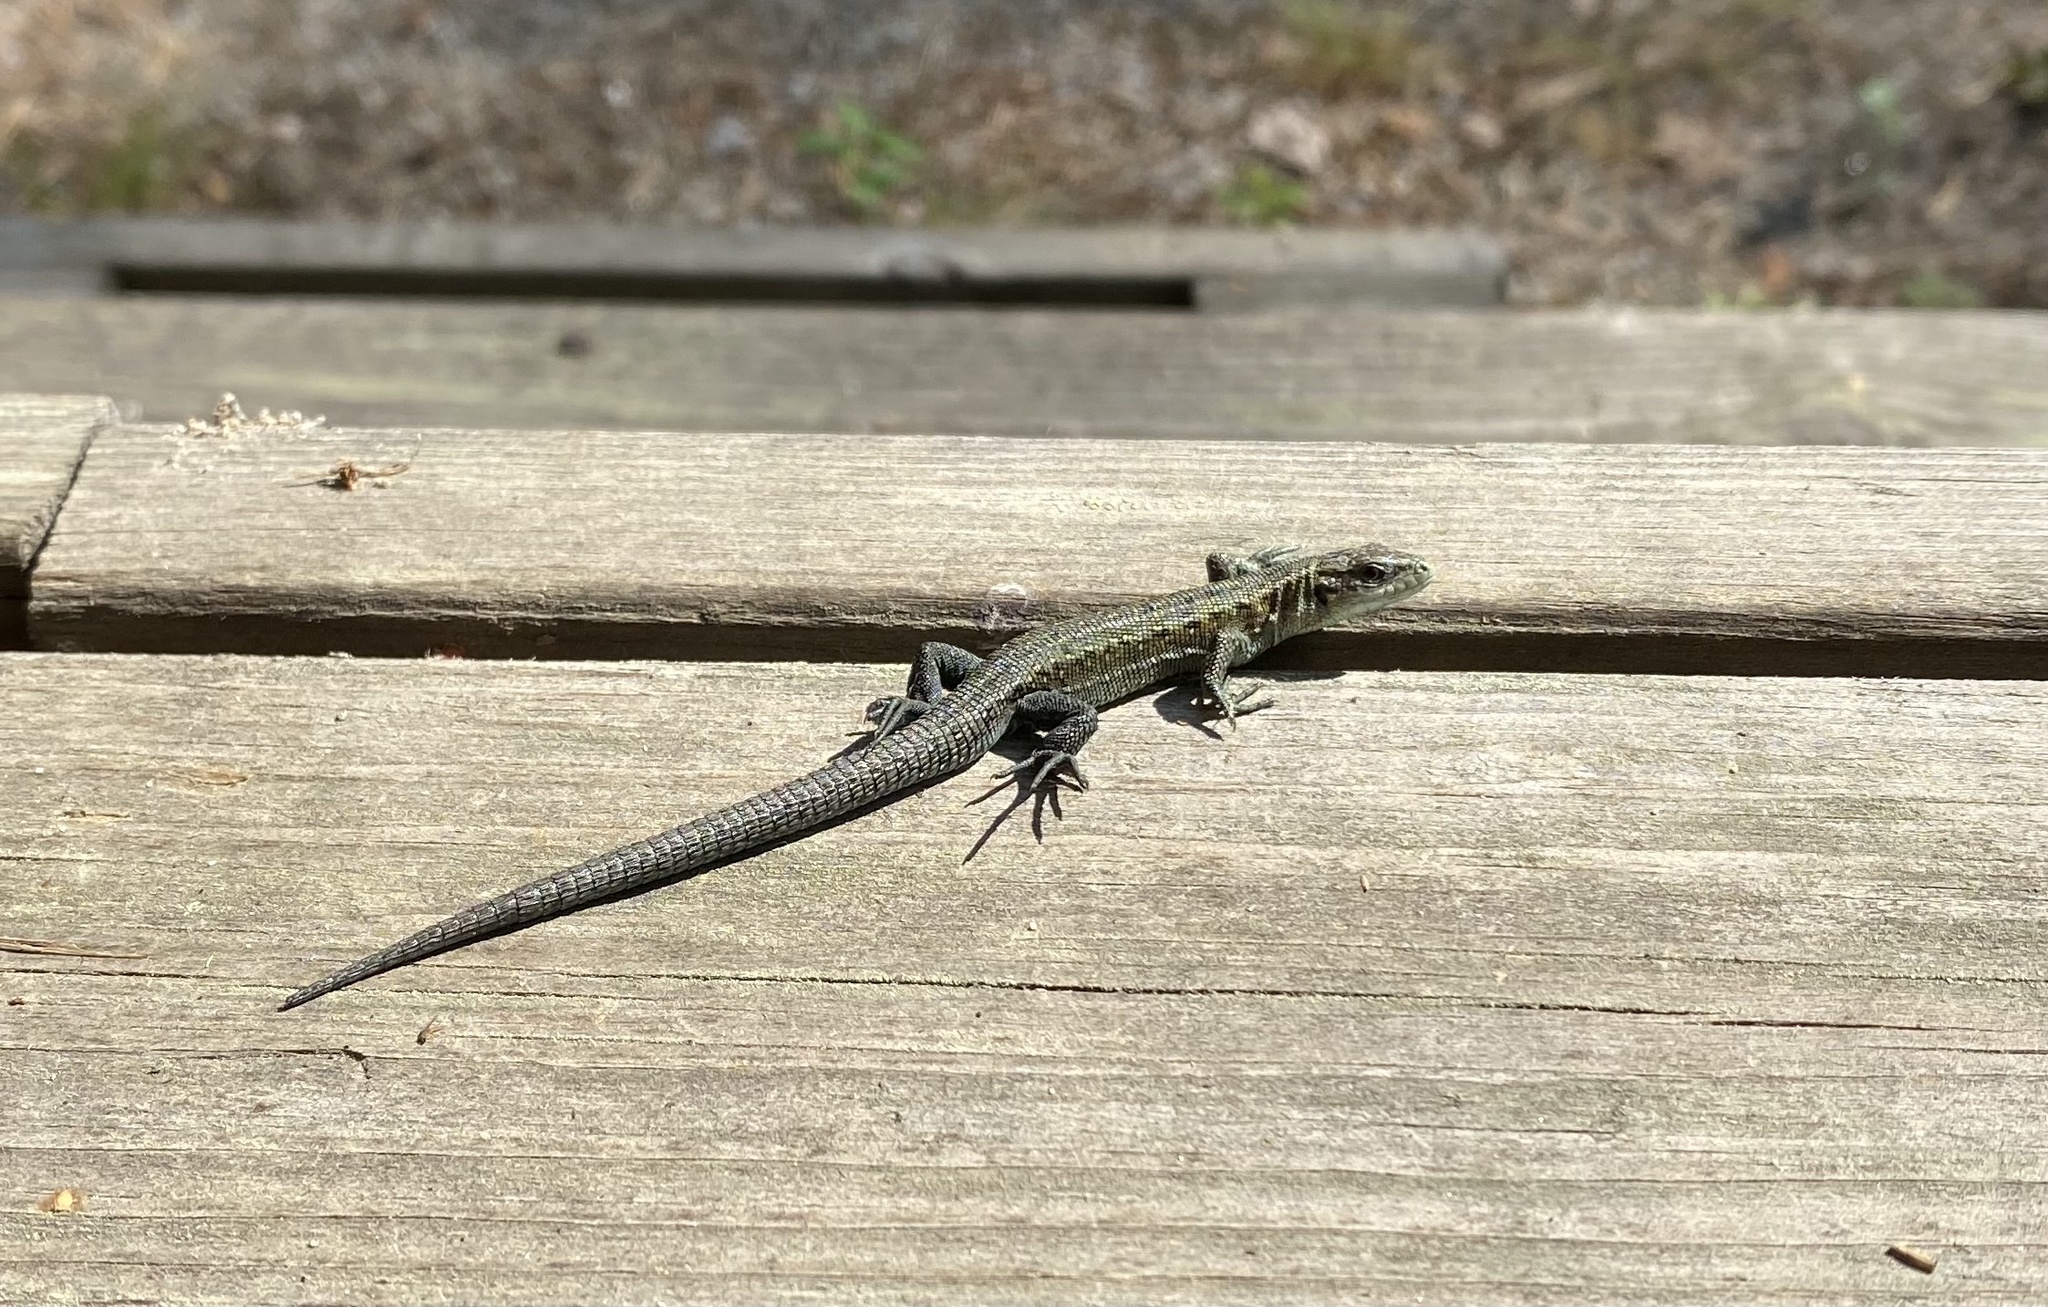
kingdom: Animalia
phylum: Chordata
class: Squamata
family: Lacertidae
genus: Zootoca
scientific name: Zootoca vivipara
